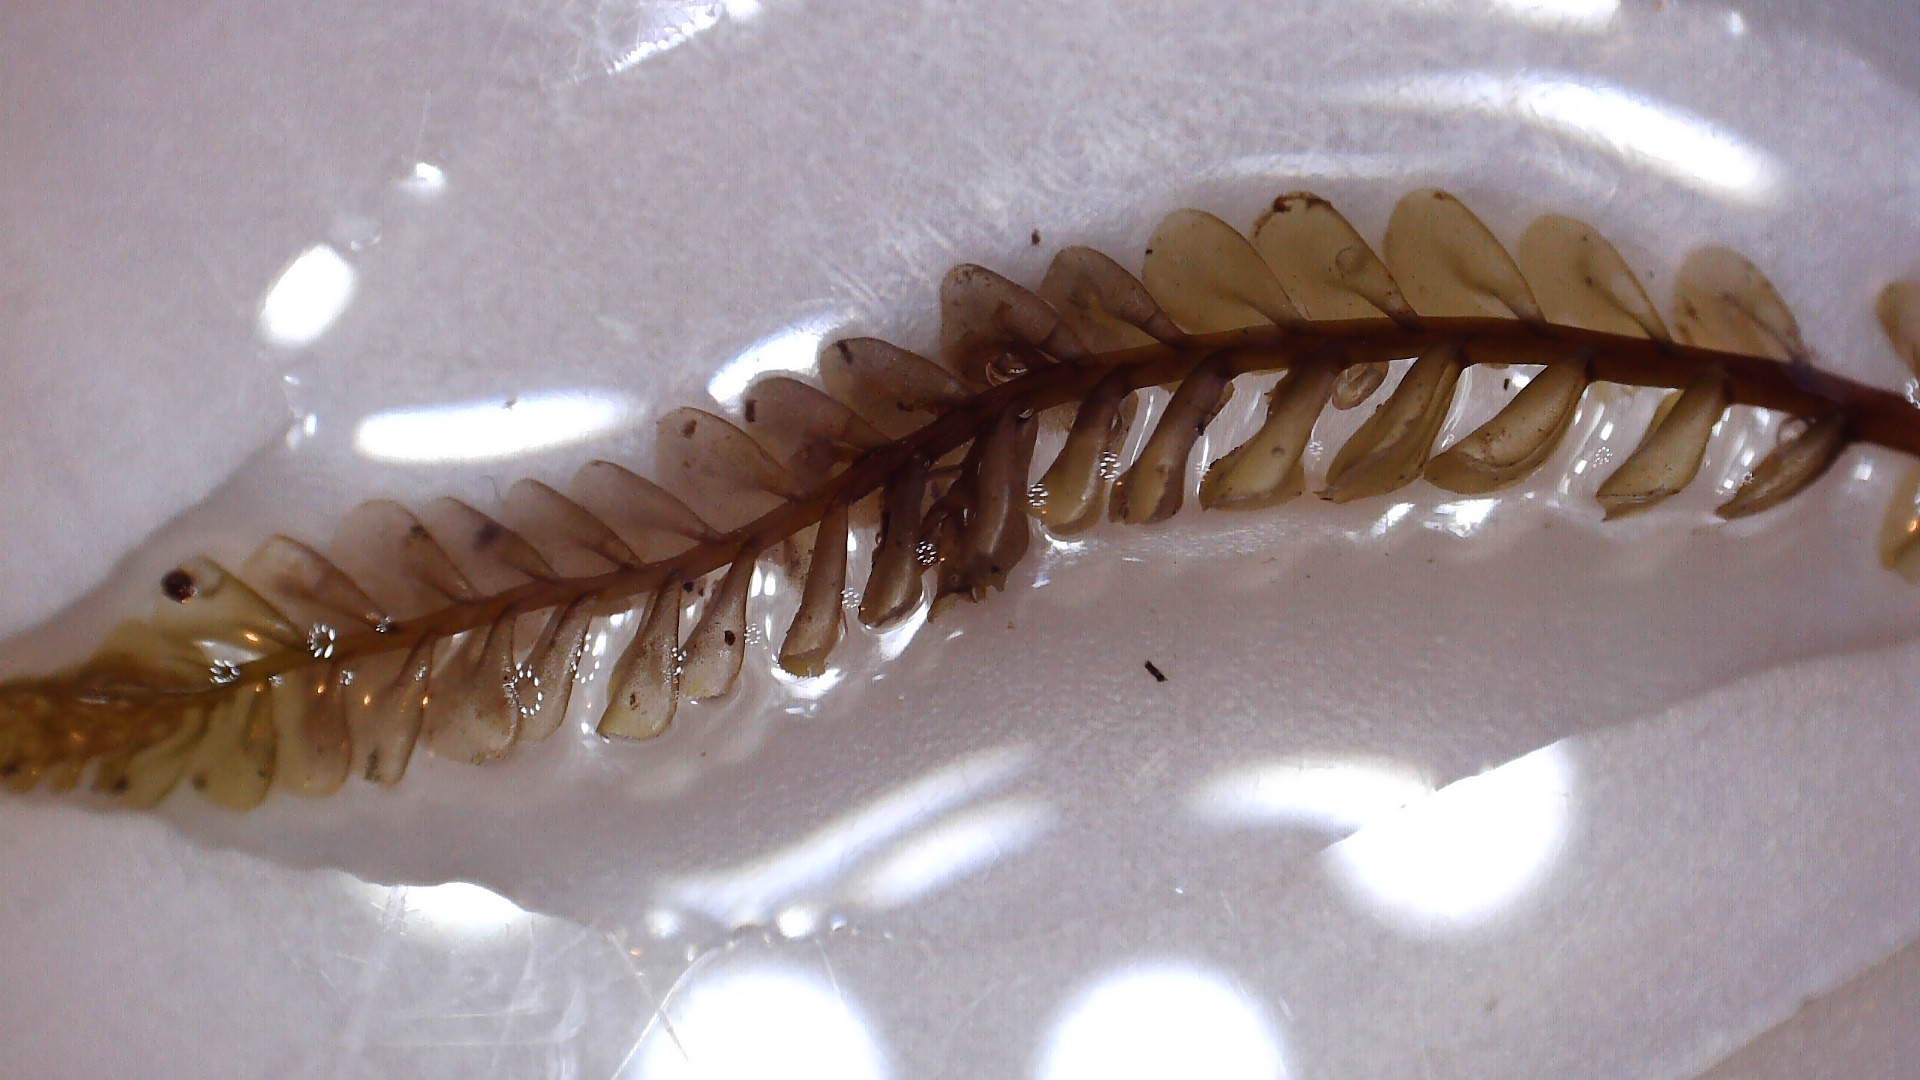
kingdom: Plantae
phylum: Marchantiophyta
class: Jungermanniopsida
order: Jungermanniales
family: Plagiochilaceae
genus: Plagiochila
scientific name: Plagiochila fuscella
